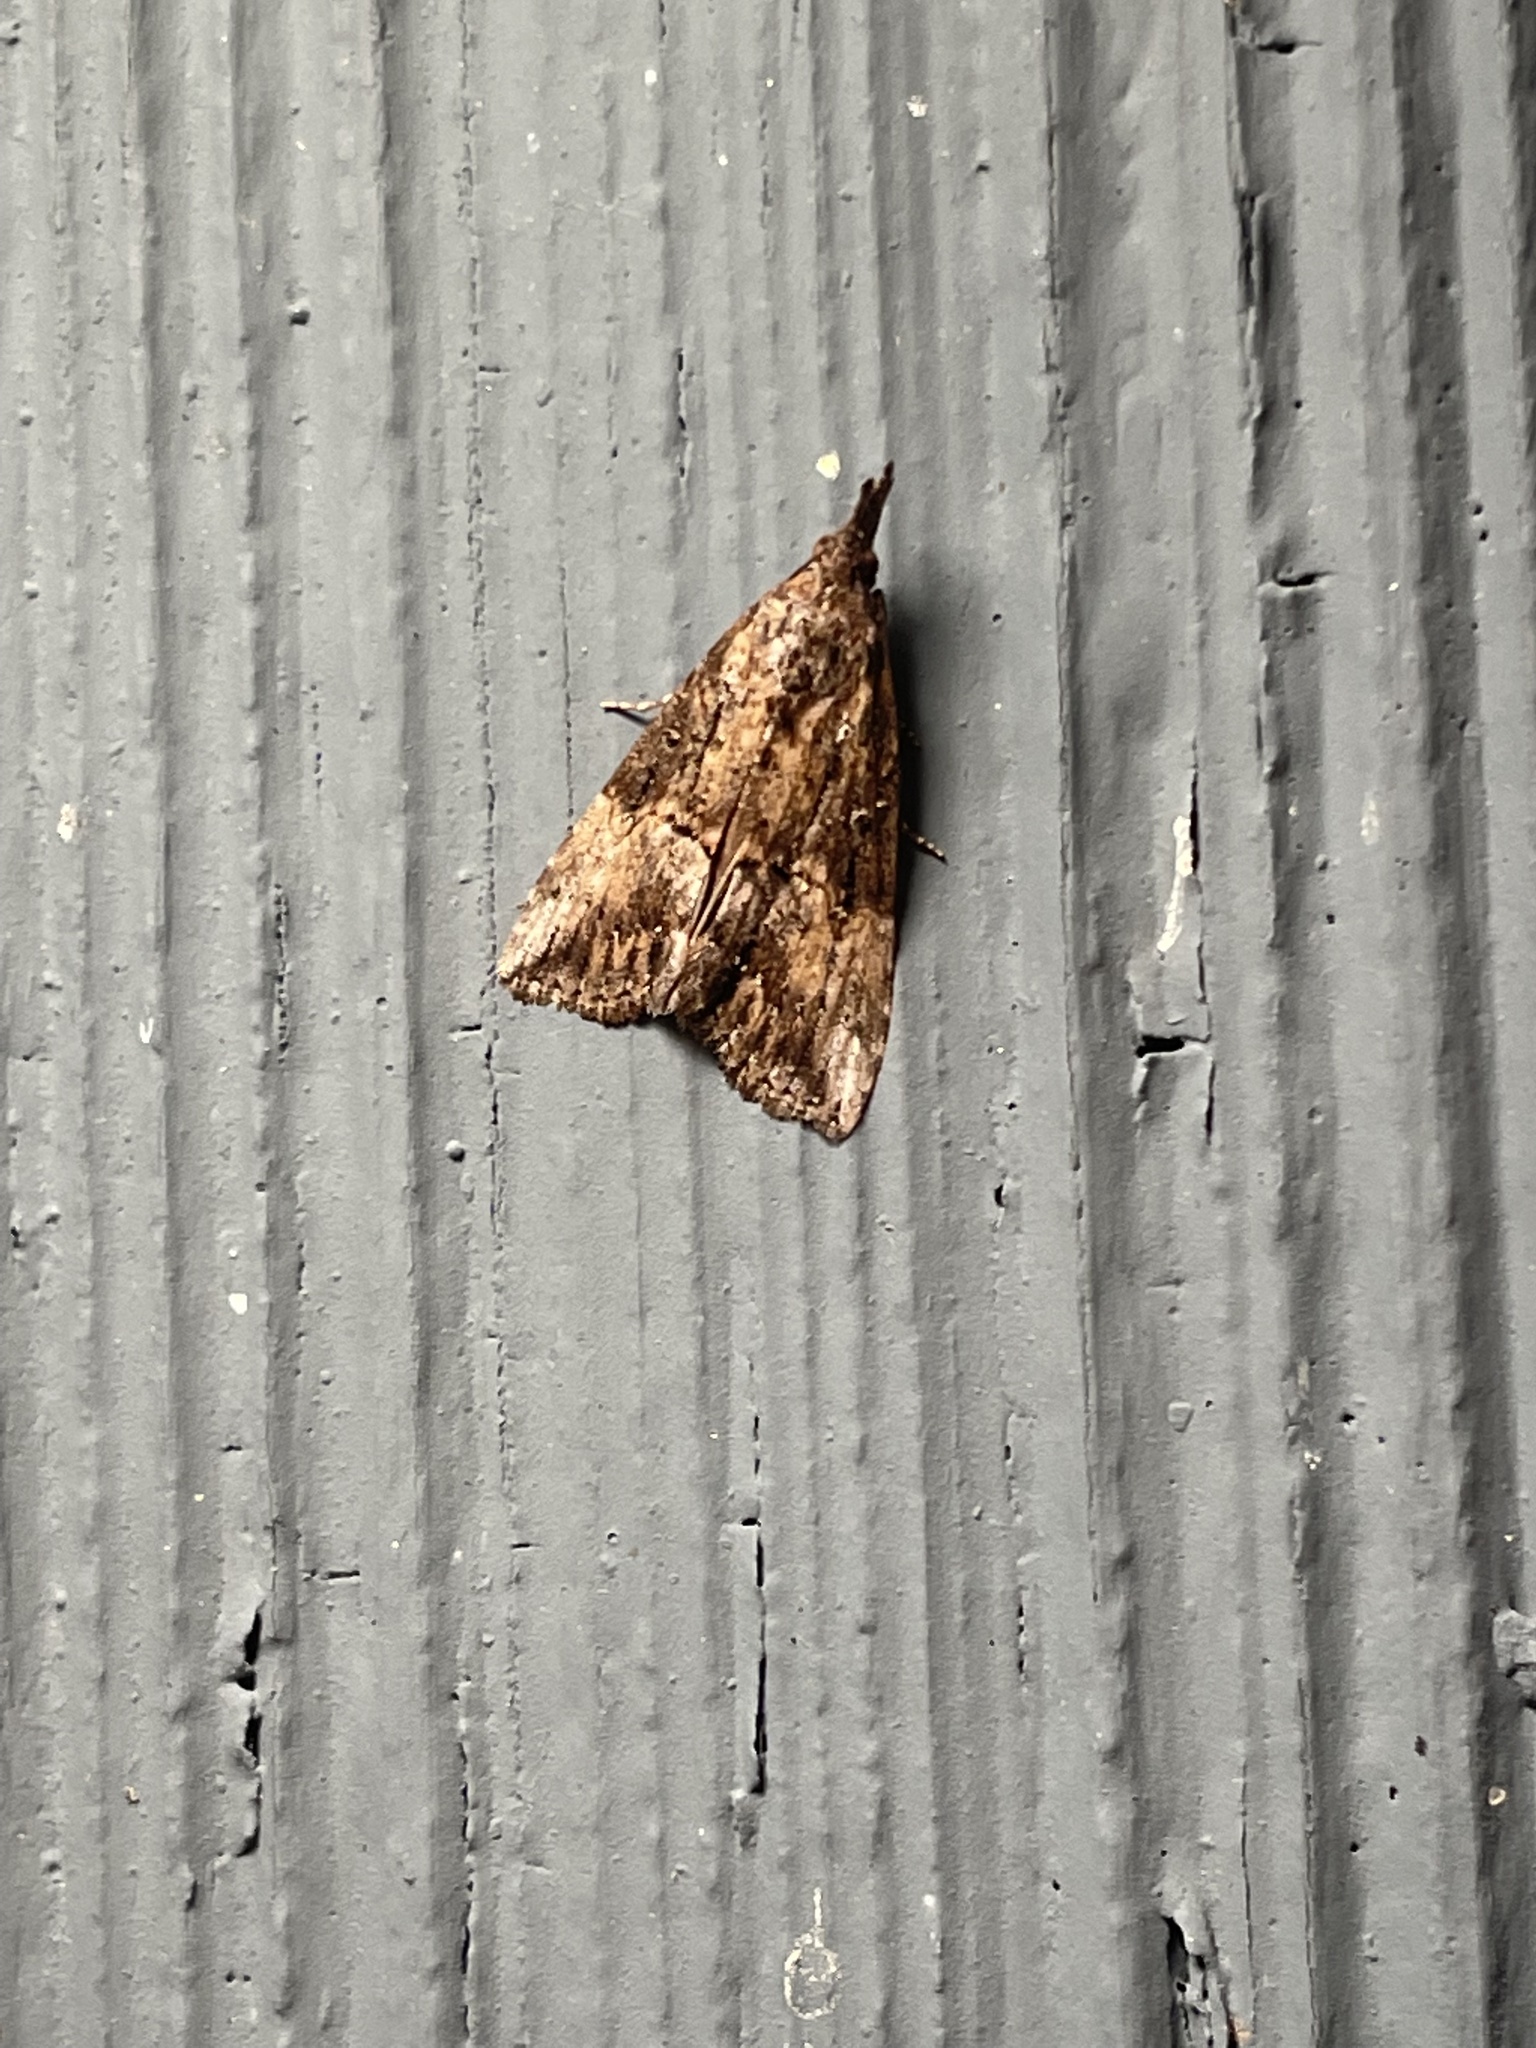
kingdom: Animalia
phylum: Arthropoda
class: Insecta
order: Lepidoptera
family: Erebidae
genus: Hypena
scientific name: Hypena scabra
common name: Green cloverworm
